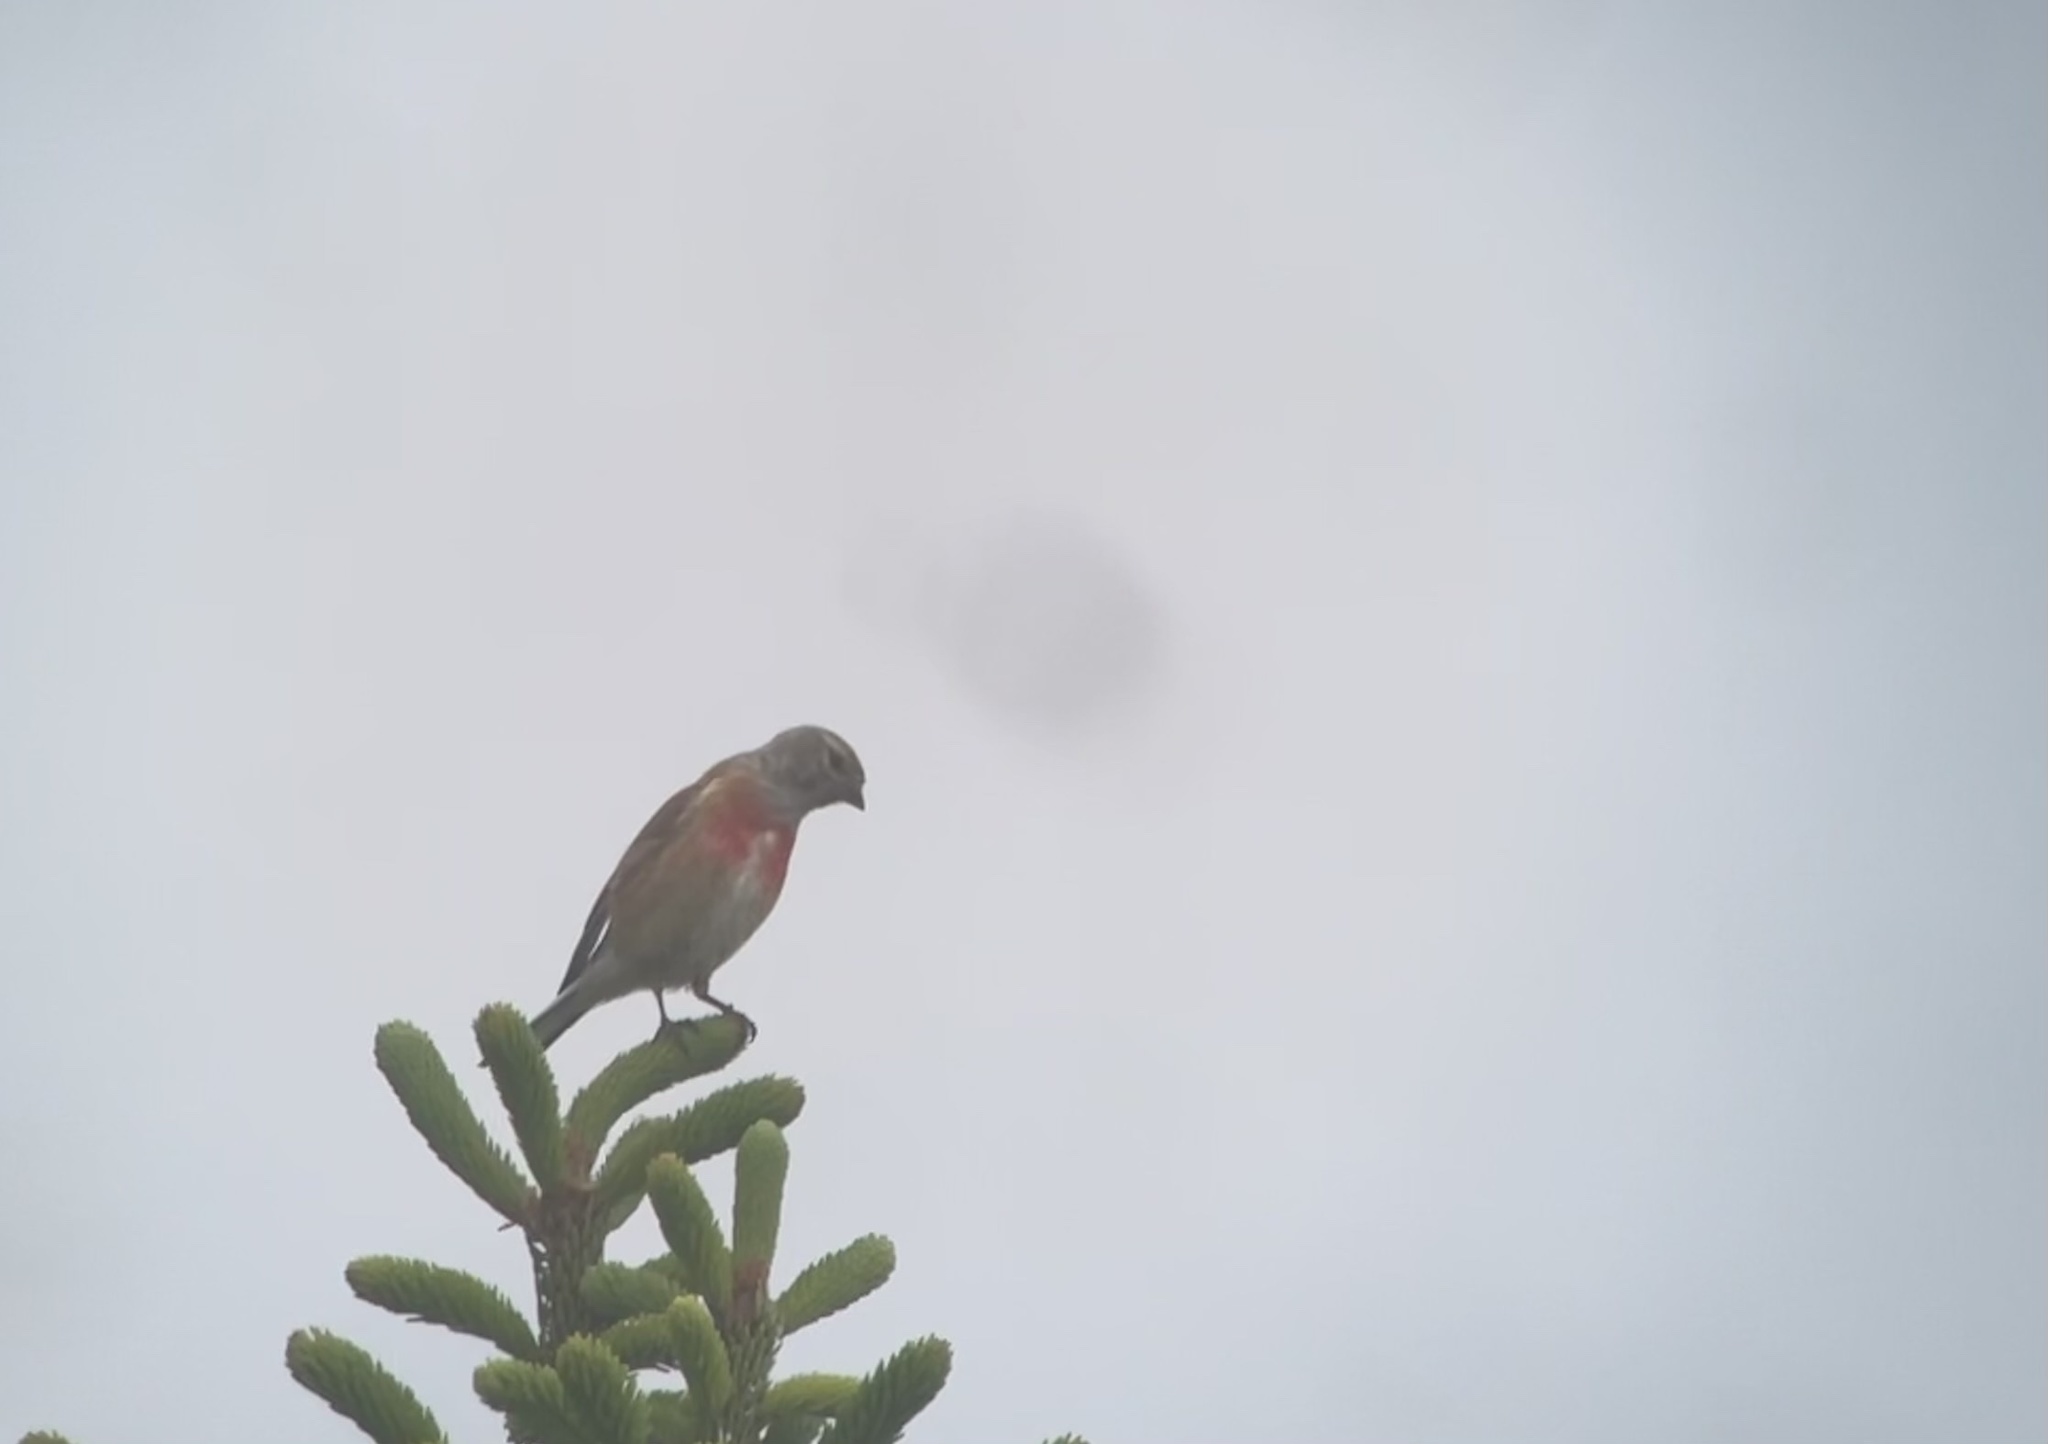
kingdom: Animalia
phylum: Chordata
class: Aves
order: Passeriformes
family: Fringillidae
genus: Linaria
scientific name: Linaria cannabina
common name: Common linnet
